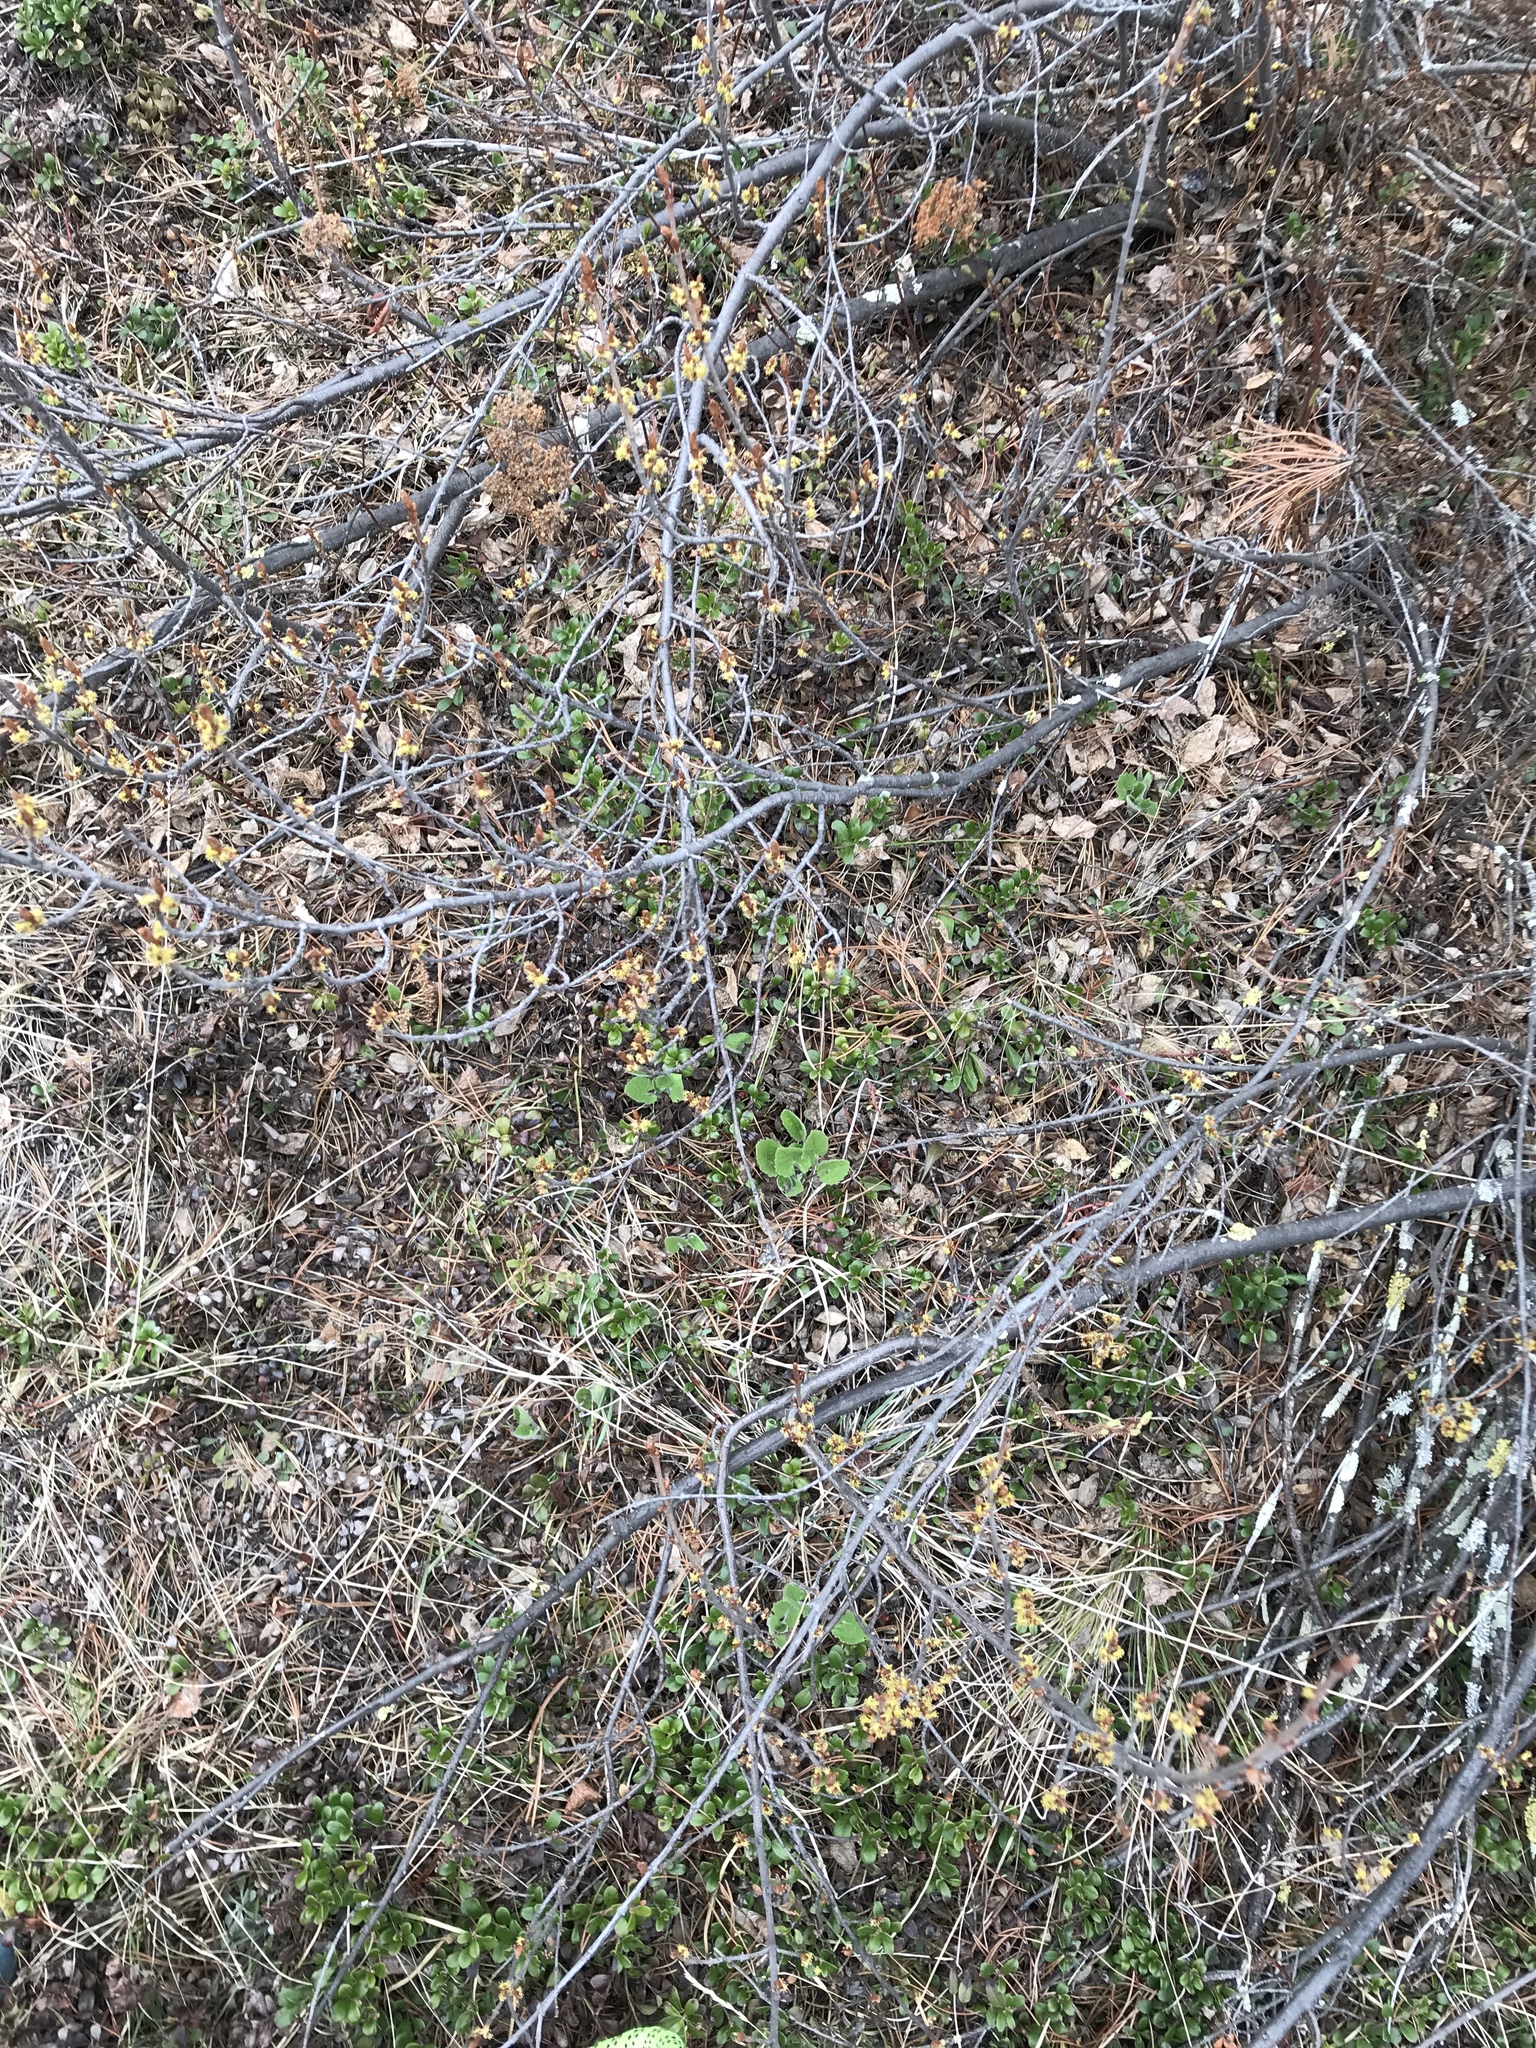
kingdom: Plantae
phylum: Tracheophyta
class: Magnoliopsida
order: Asterales
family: Asteraceae
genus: Arnica
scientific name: Arnica cordifolia
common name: Heart-leaf arnica
